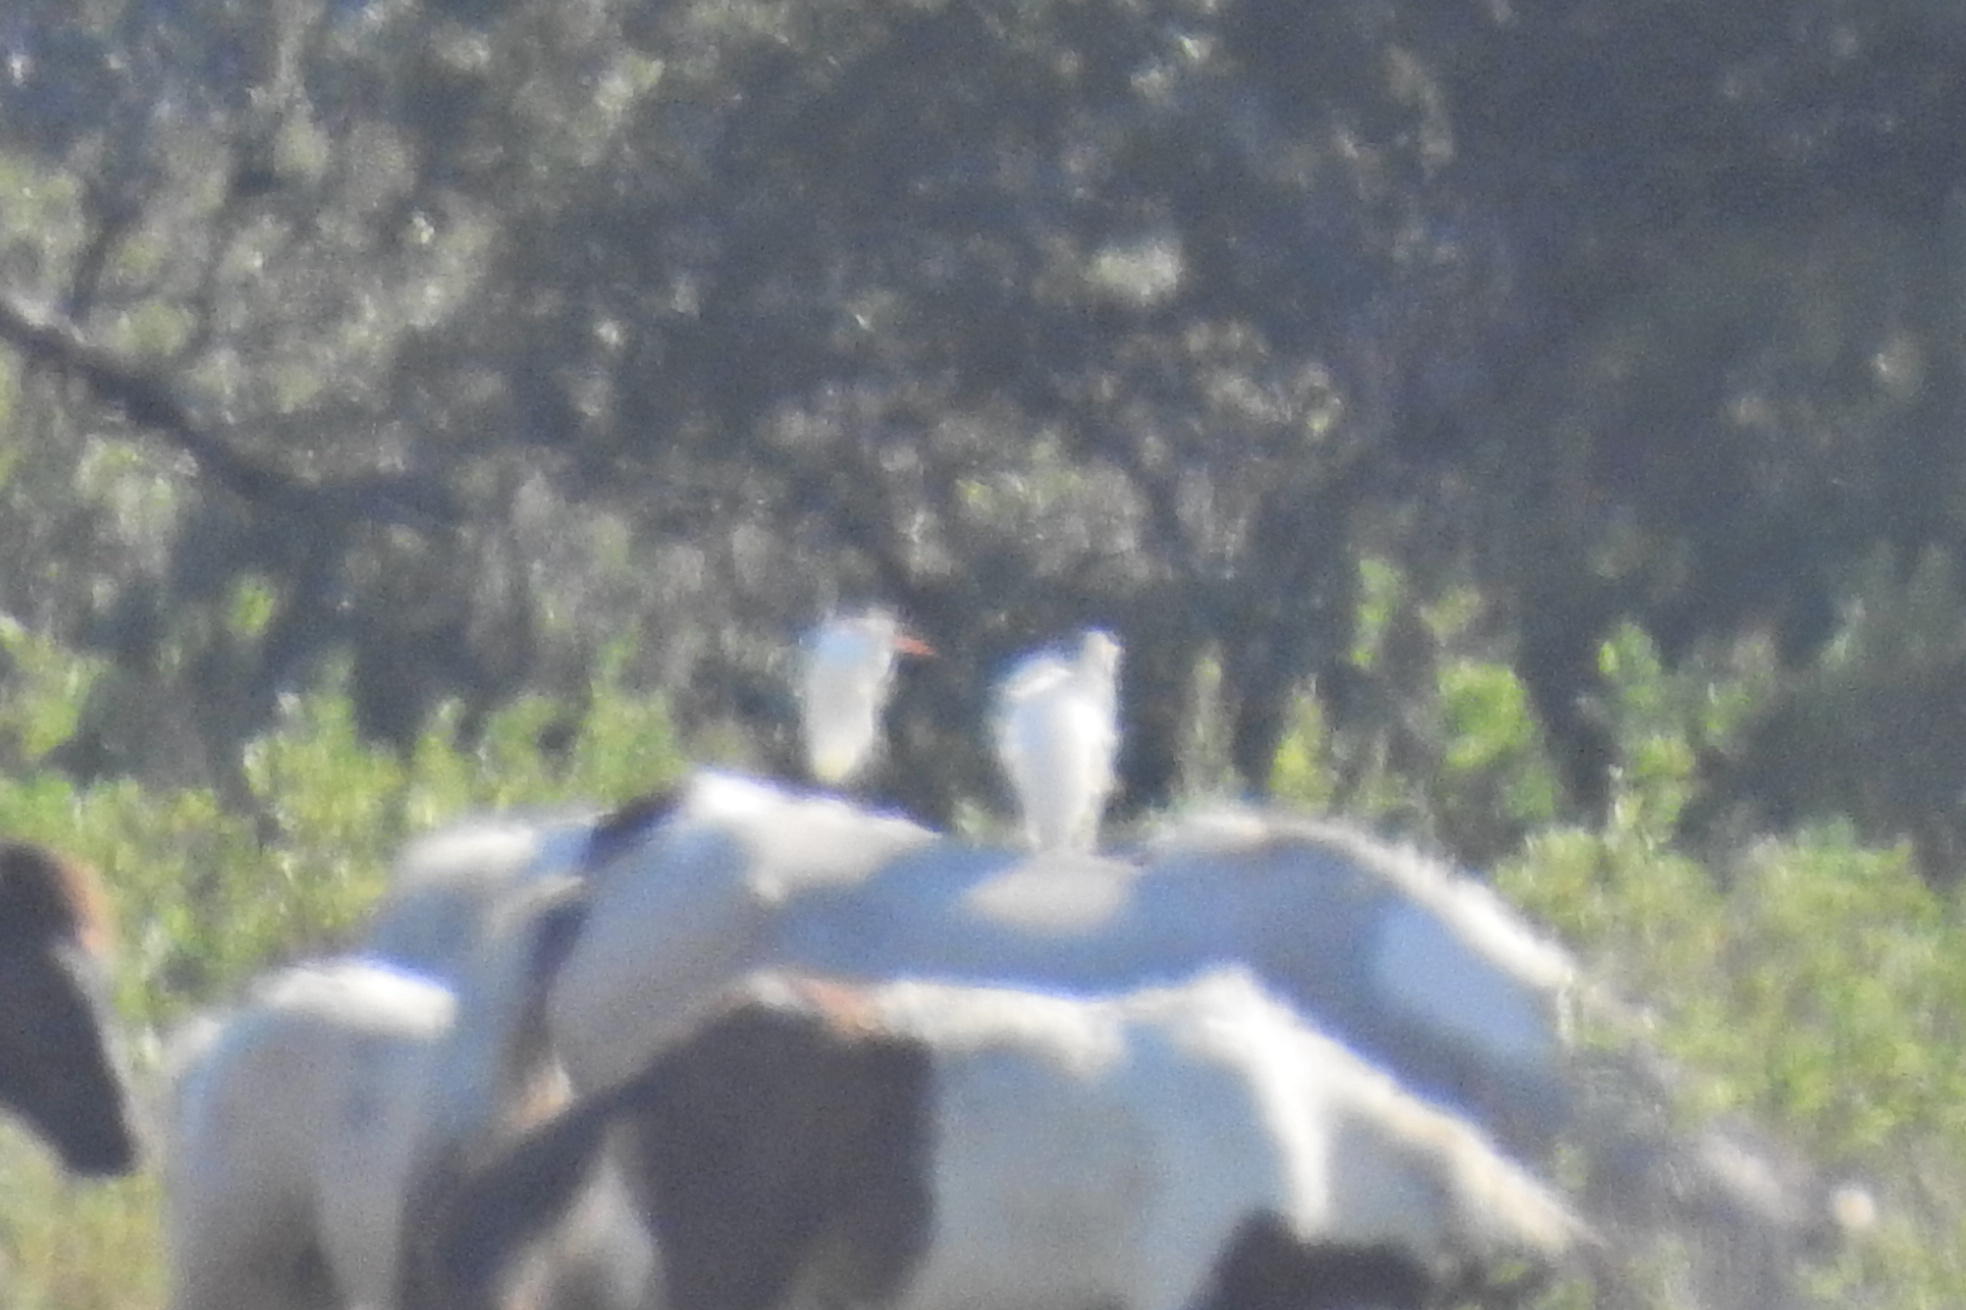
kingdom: Animalia
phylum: Chordata
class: Aves
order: Pelecaniformes
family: Ardeidae
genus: Bubulcus
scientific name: Bubulcus ibis
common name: Cattle egret
